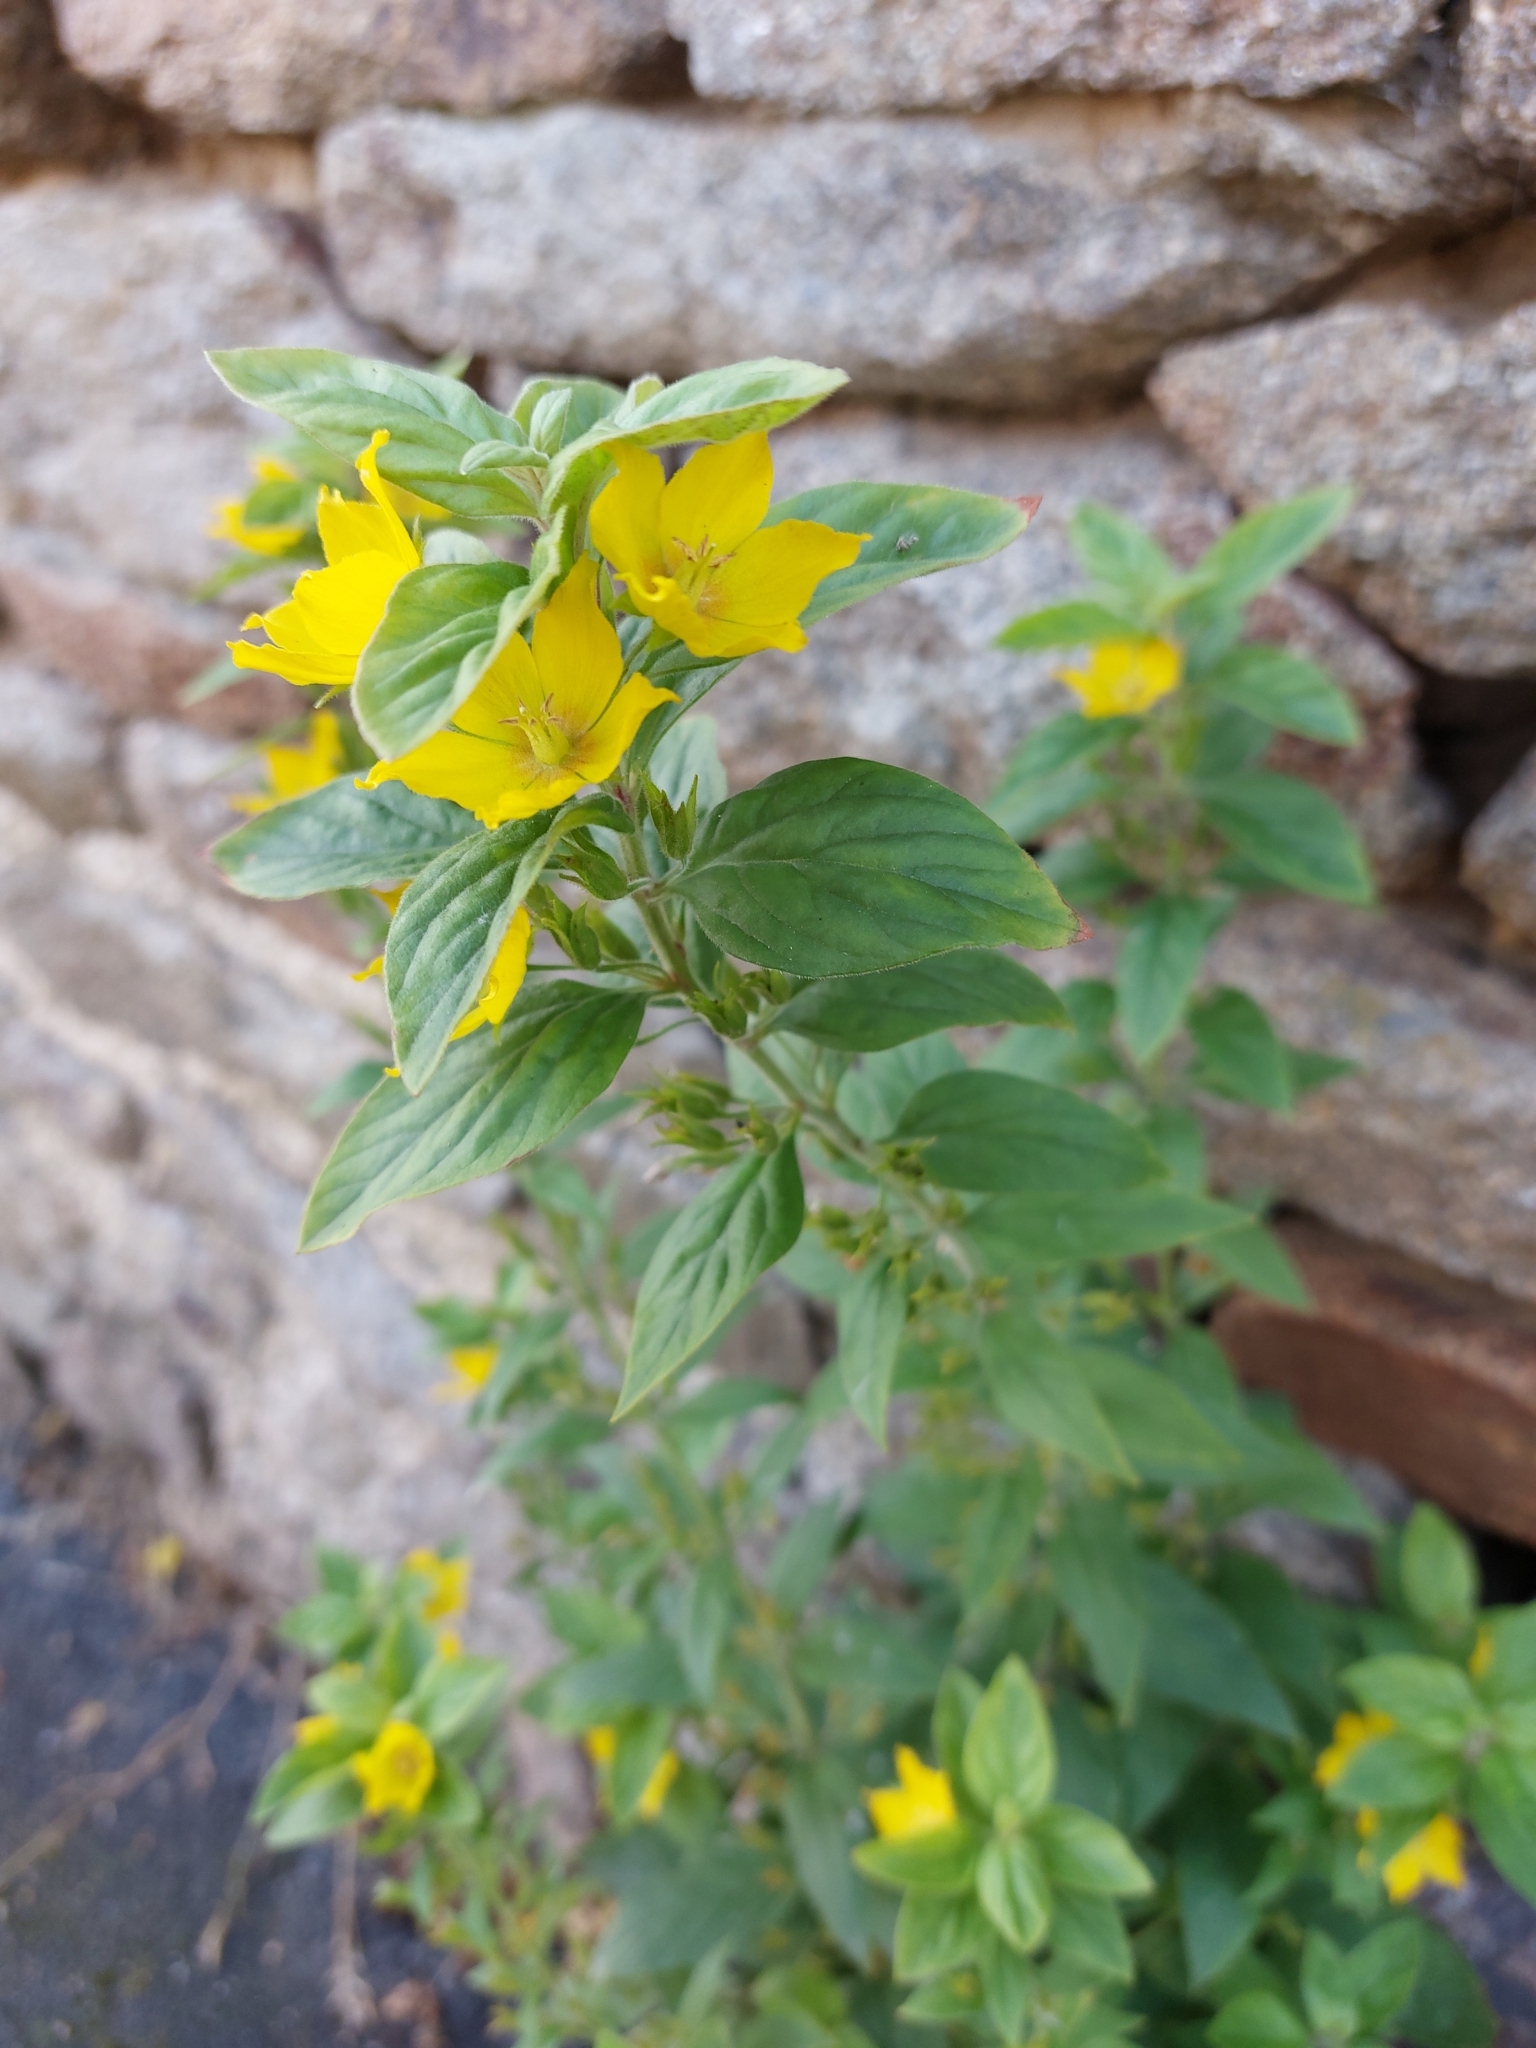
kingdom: Plantae
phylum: Tracheophyta
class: Magnoliopsida
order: Ericales
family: Primulaceae
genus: Lysimachia
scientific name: Lysimachia punctata
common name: Dotted loosestrife
